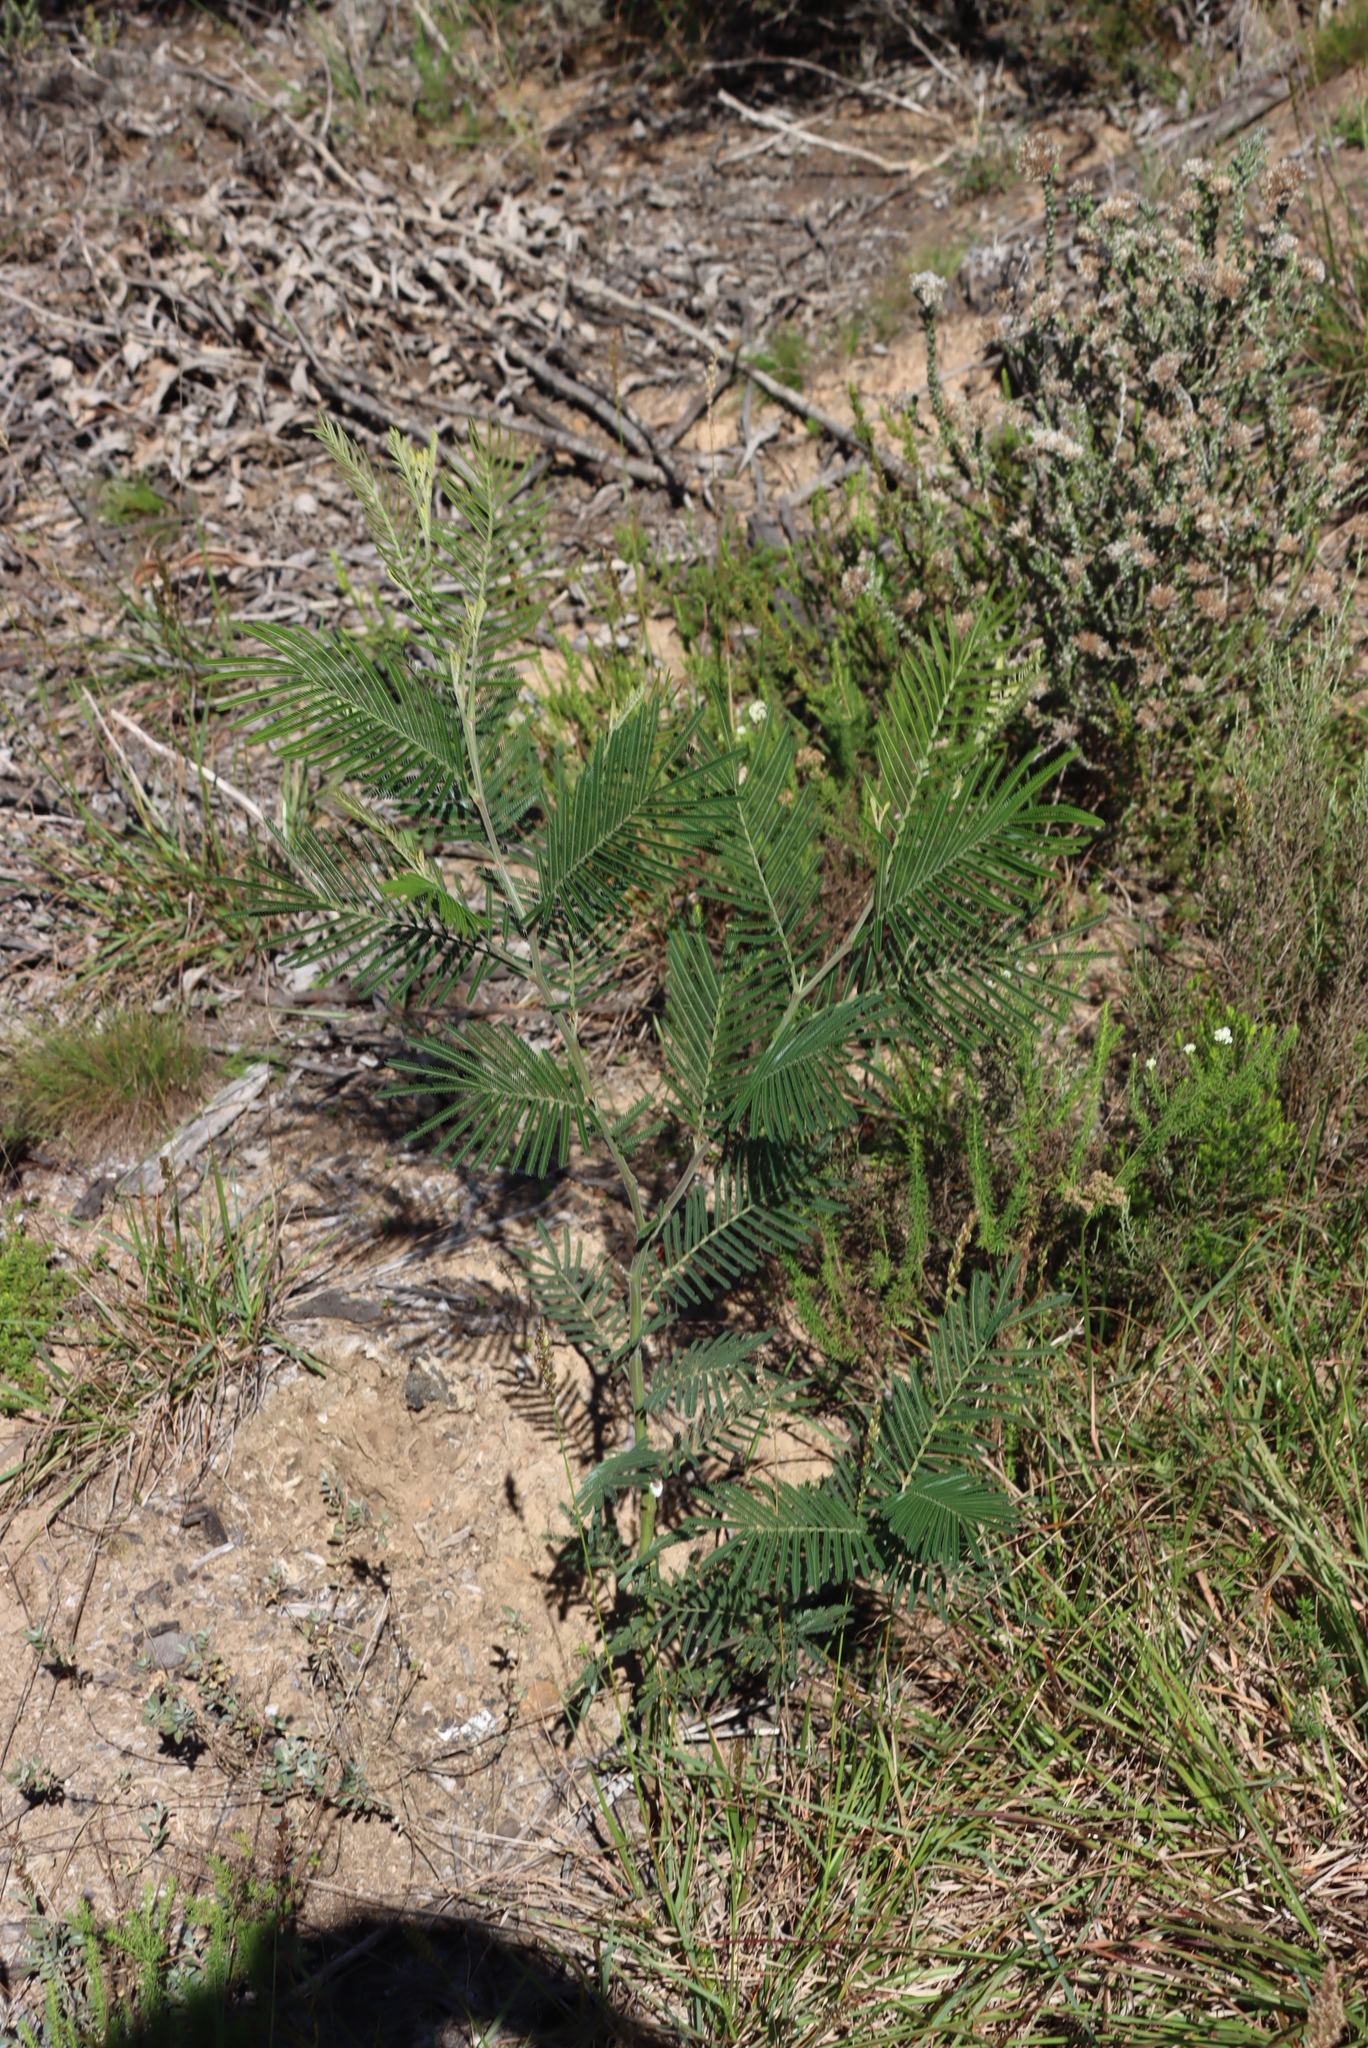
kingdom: Plantae
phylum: Tracheophyta
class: Magnoliopsida
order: Fabales
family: Fabaceae
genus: Acacia
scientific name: Acacia mearnsii
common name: Black wattle
